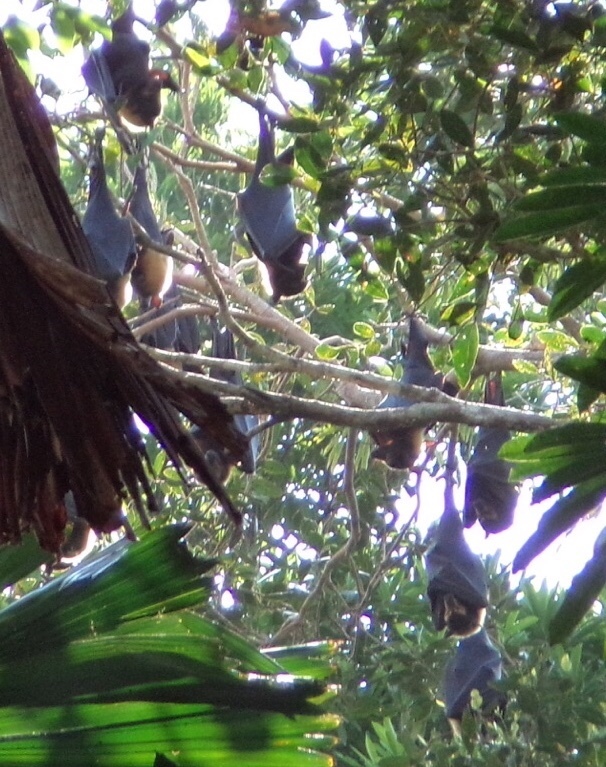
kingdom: Animalia
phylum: Chordata
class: Mammalia
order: Chiroptera
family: Pteropodidae
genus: Pteropus
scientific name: Pteropus conspicillatus
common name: Spectacled flying fox
